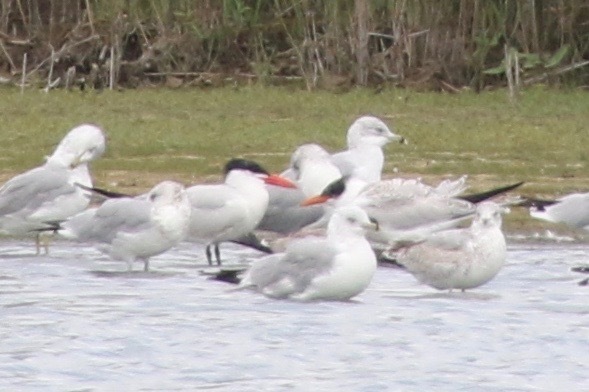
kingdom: Animalia
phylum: Chordata
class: Aves
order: Charadriiformes
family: Laridae
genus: Hydroprogne
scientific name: Hydroprogne caspia
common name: Caspian tern
